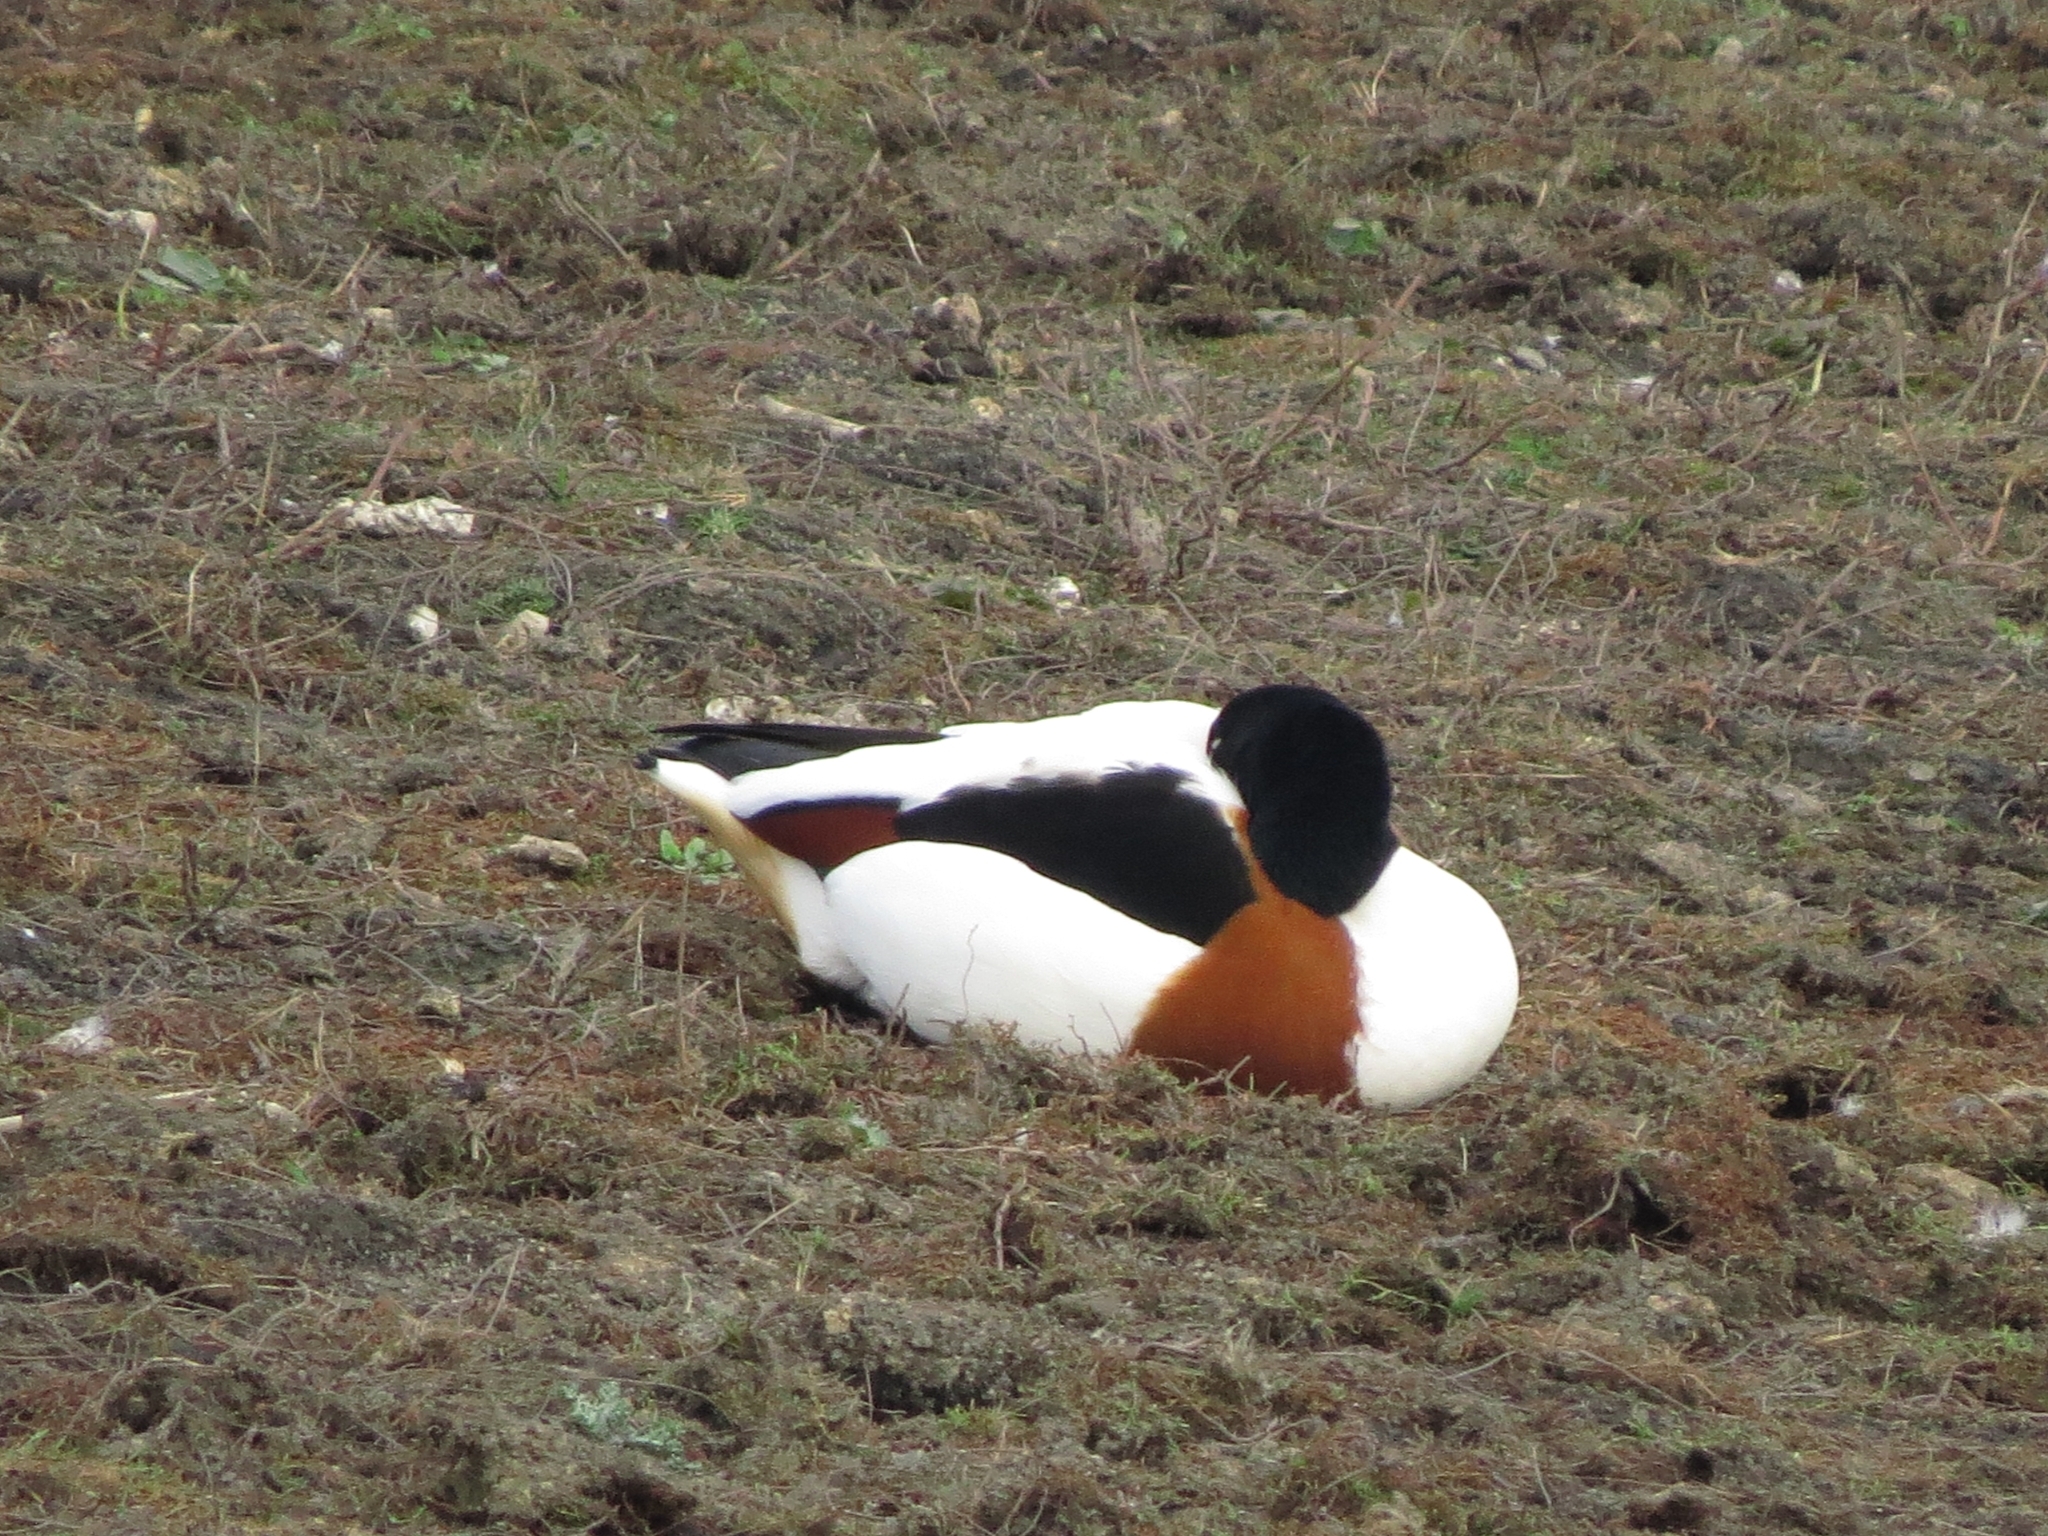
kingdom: Animalia
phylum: Chordata
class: Aves
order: Anseriformes
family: Anatidae
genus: Tadorna
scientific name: Tadorna tadorna
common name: Common shelduck
